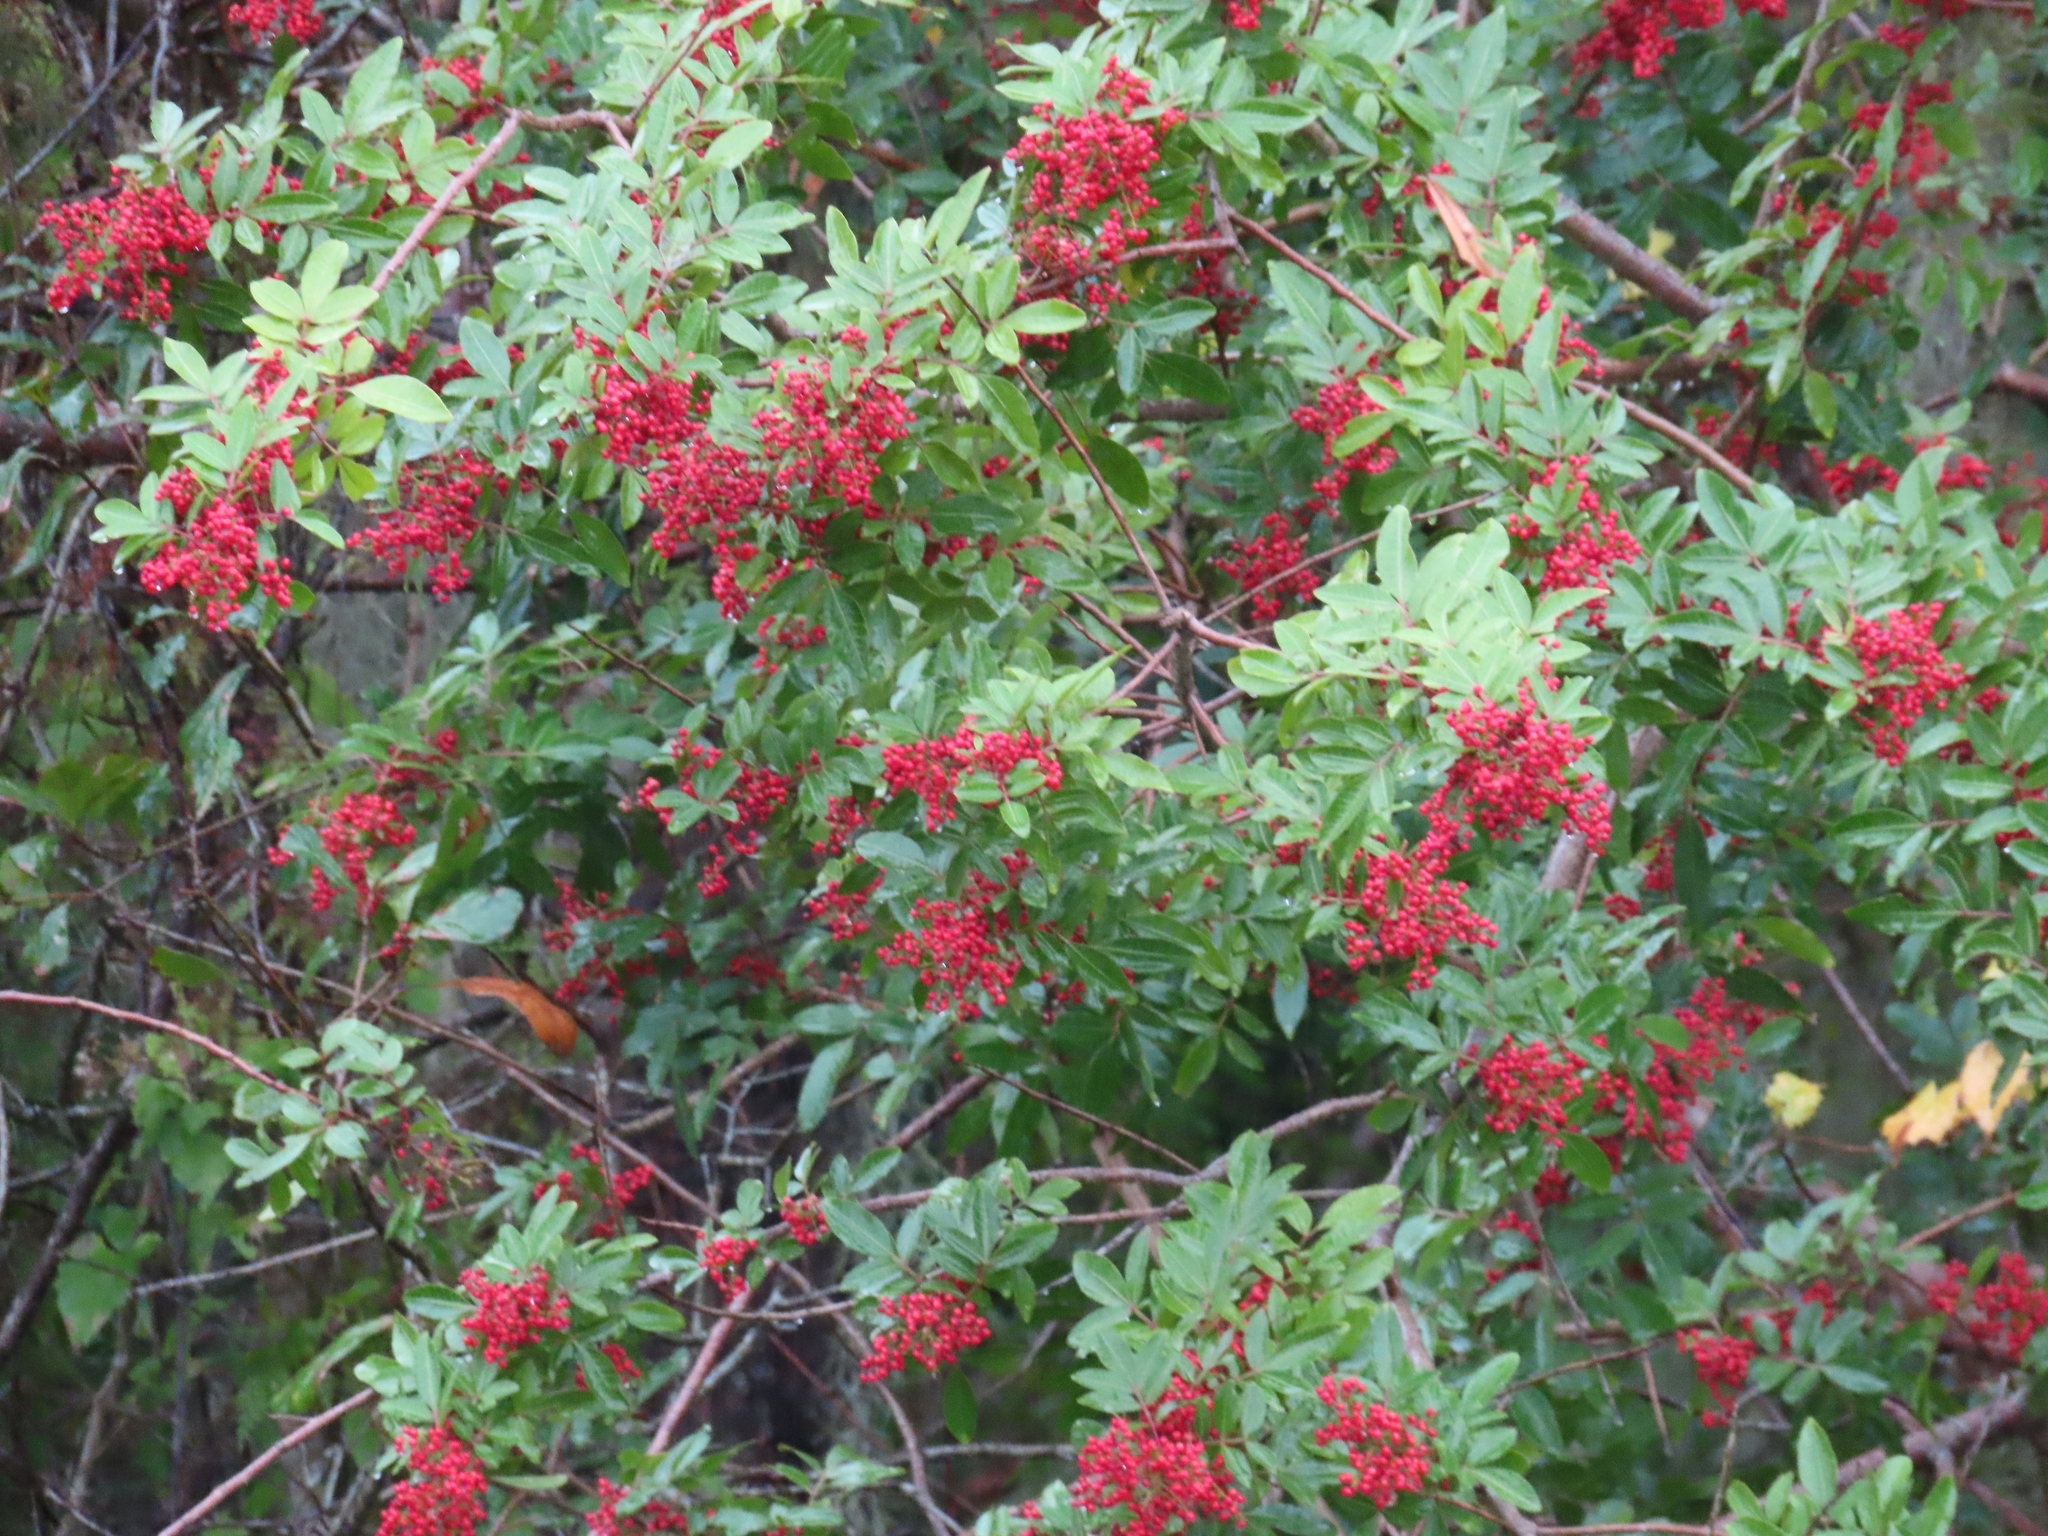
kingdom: Plantae
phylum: Tracheophyta
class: Magnoliopsida
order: Sapindales
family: Anacardiaceae
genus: Schinus
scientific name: Schinus terebinthifolia
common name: Brazilian peppertree
